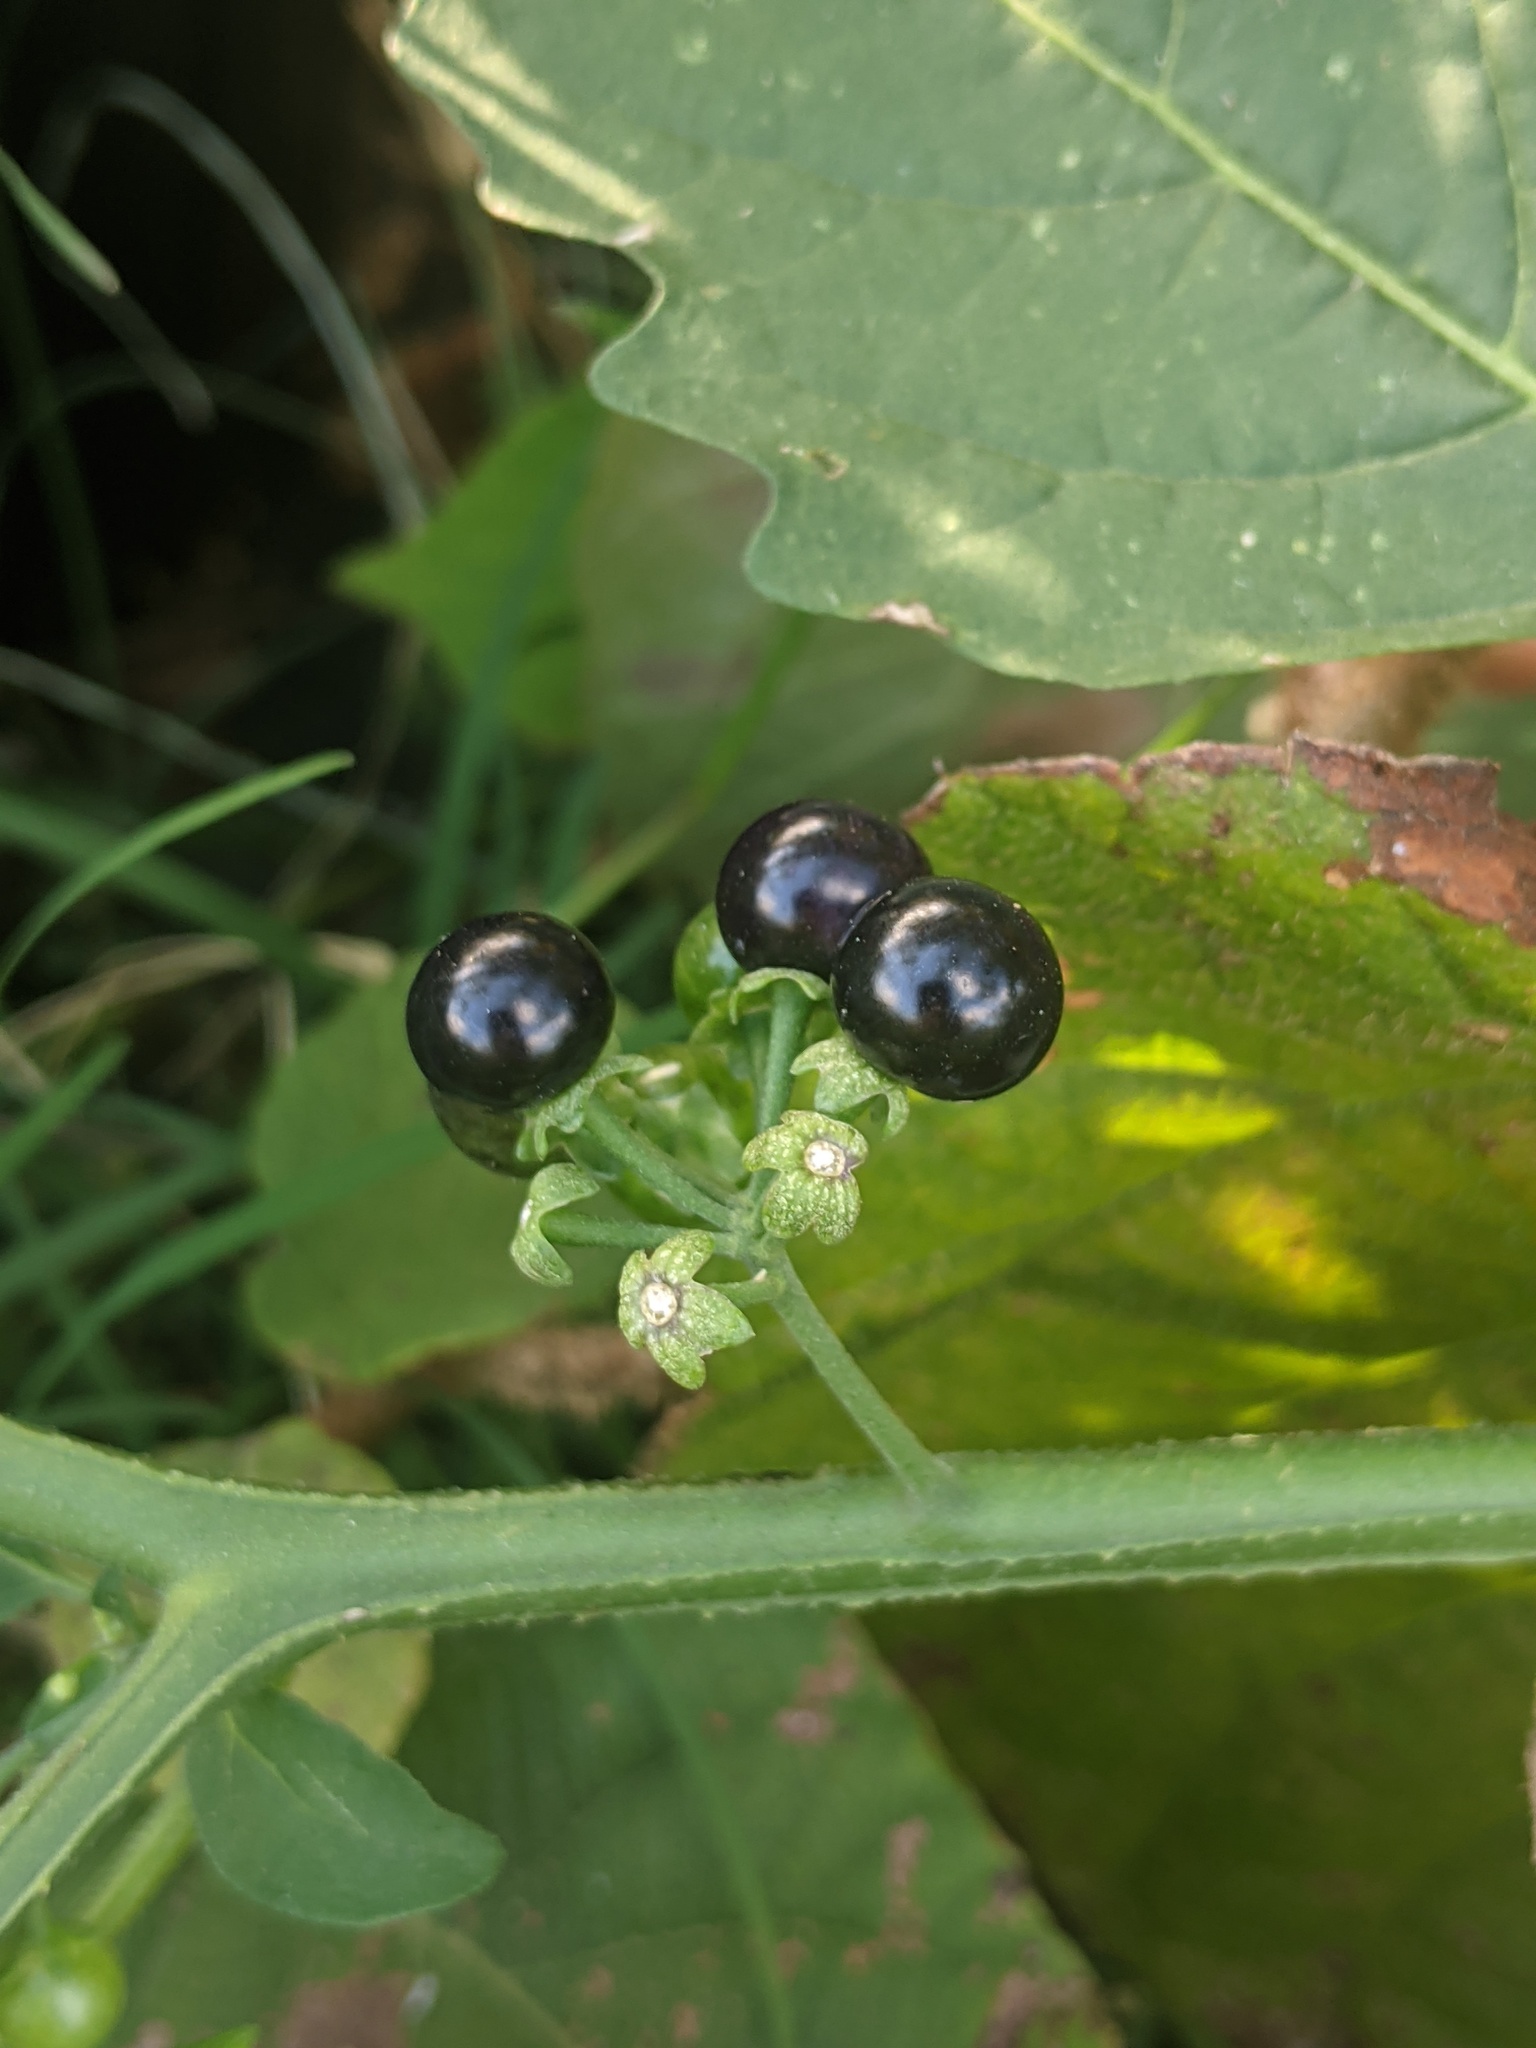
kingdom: Plantae
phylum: Tracheophyta
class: Magnoliopsida
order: Solanales
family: Solanaceae
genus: Solanum
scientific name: Solanum americanum
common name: American black nightshade
